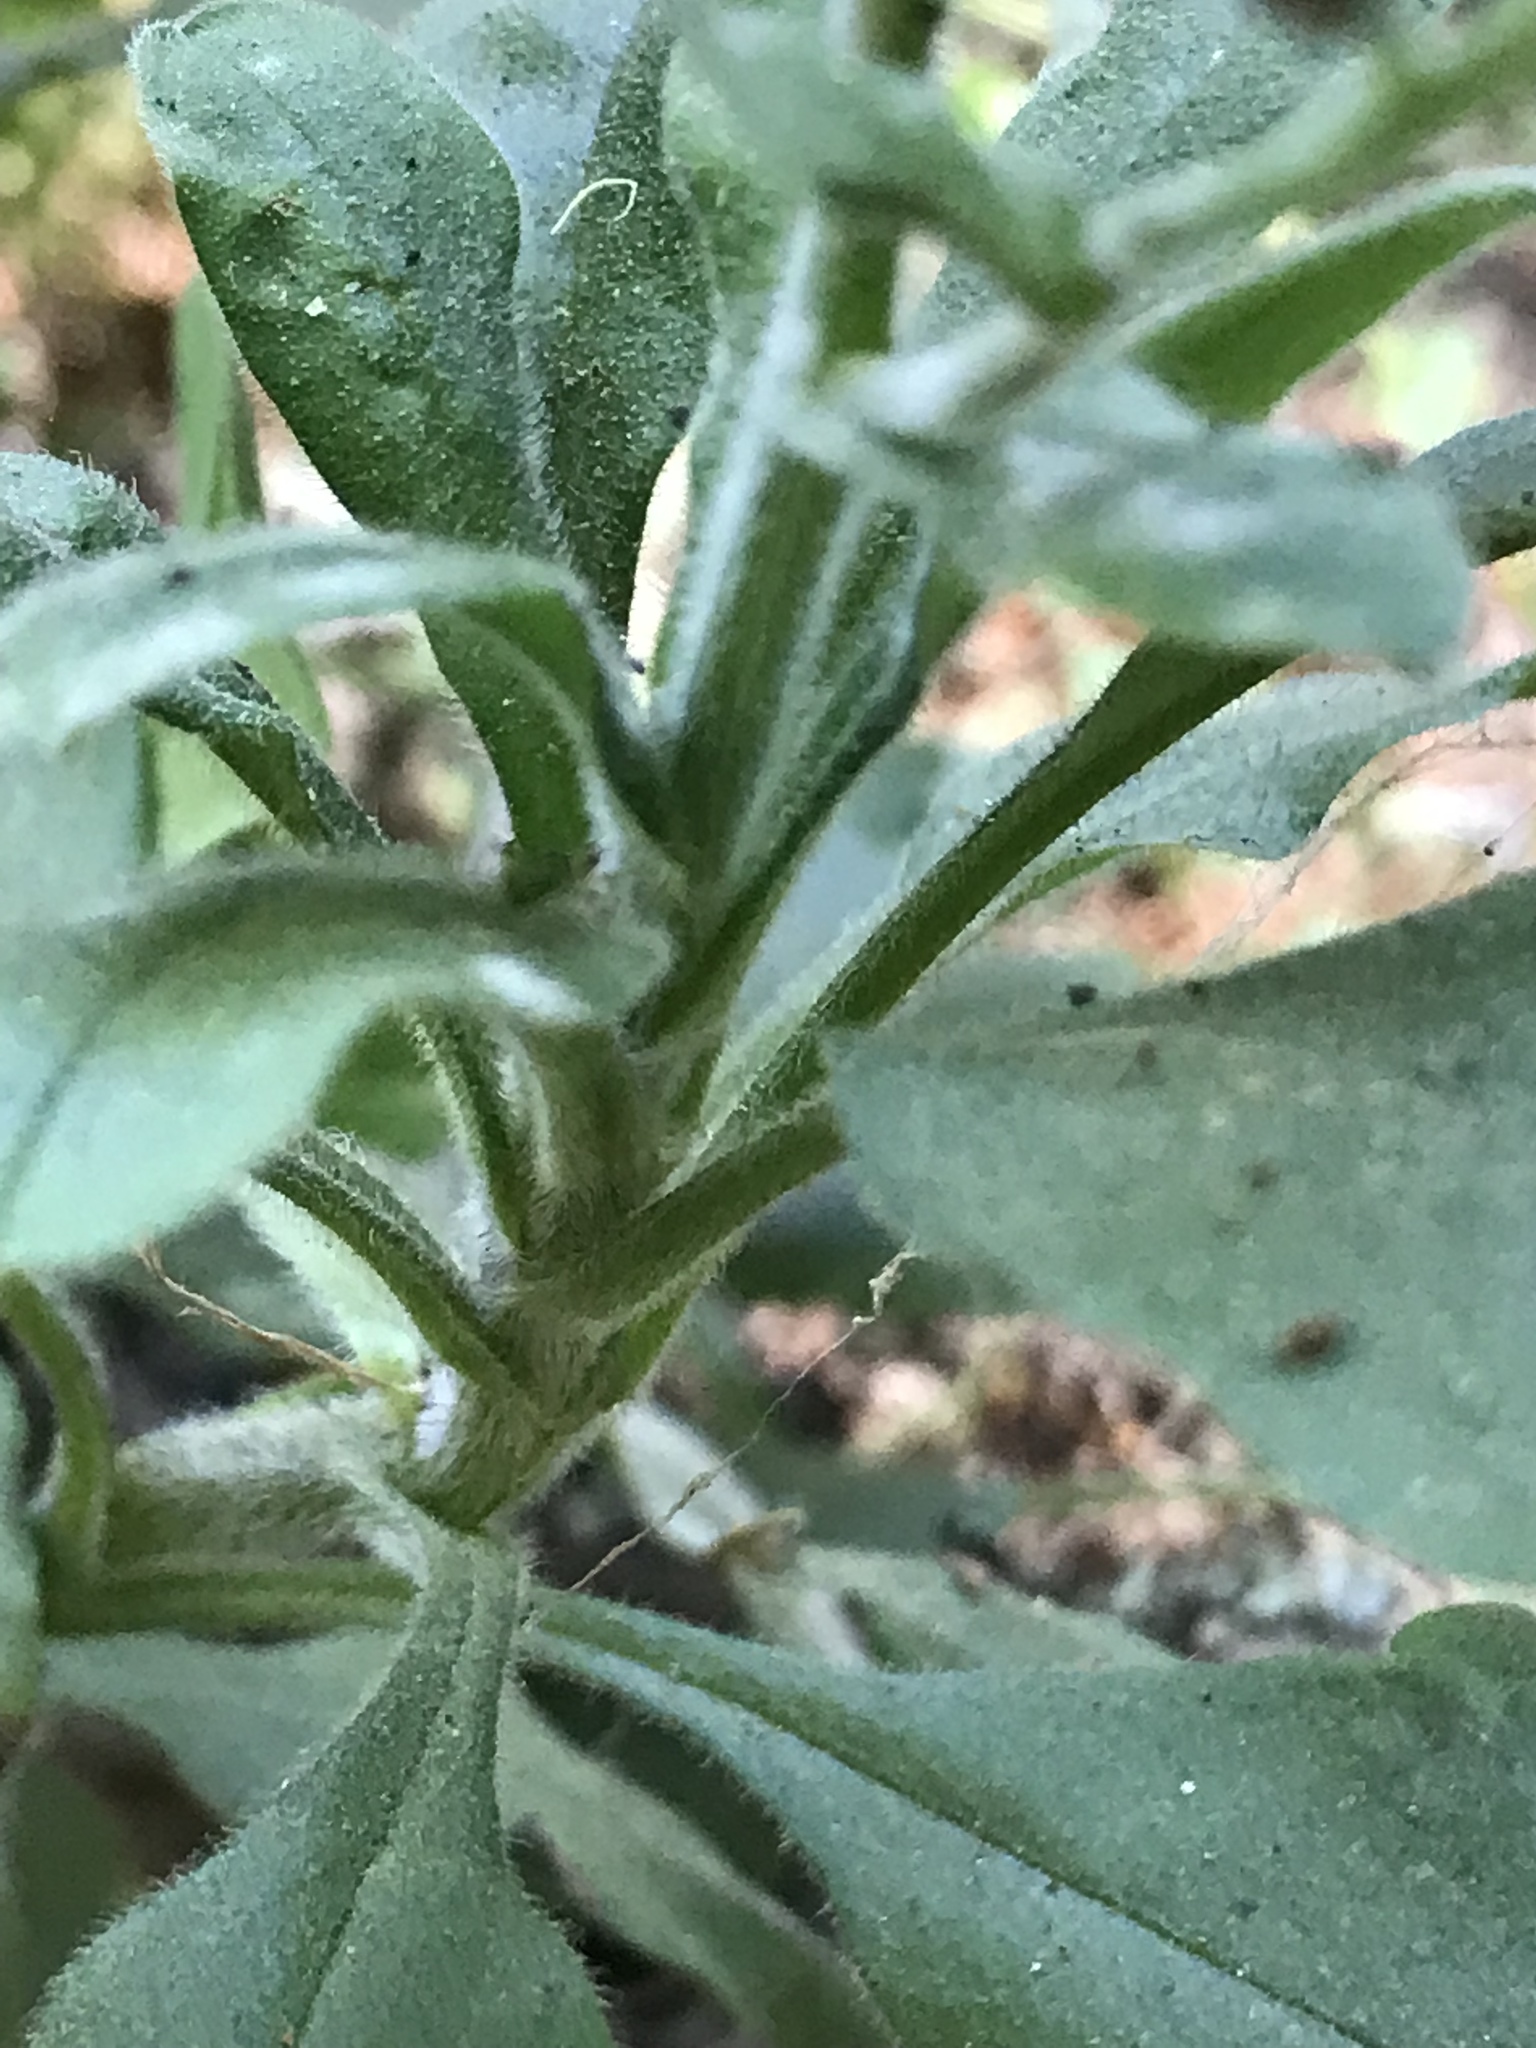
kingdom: Plantae
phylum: Tracheophyta
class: Magnoliopsida
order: Boraginales
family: Boraginaceae
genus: Myosotis
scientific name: Myosotis latifolia
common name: Broadleaf forget-me-not
